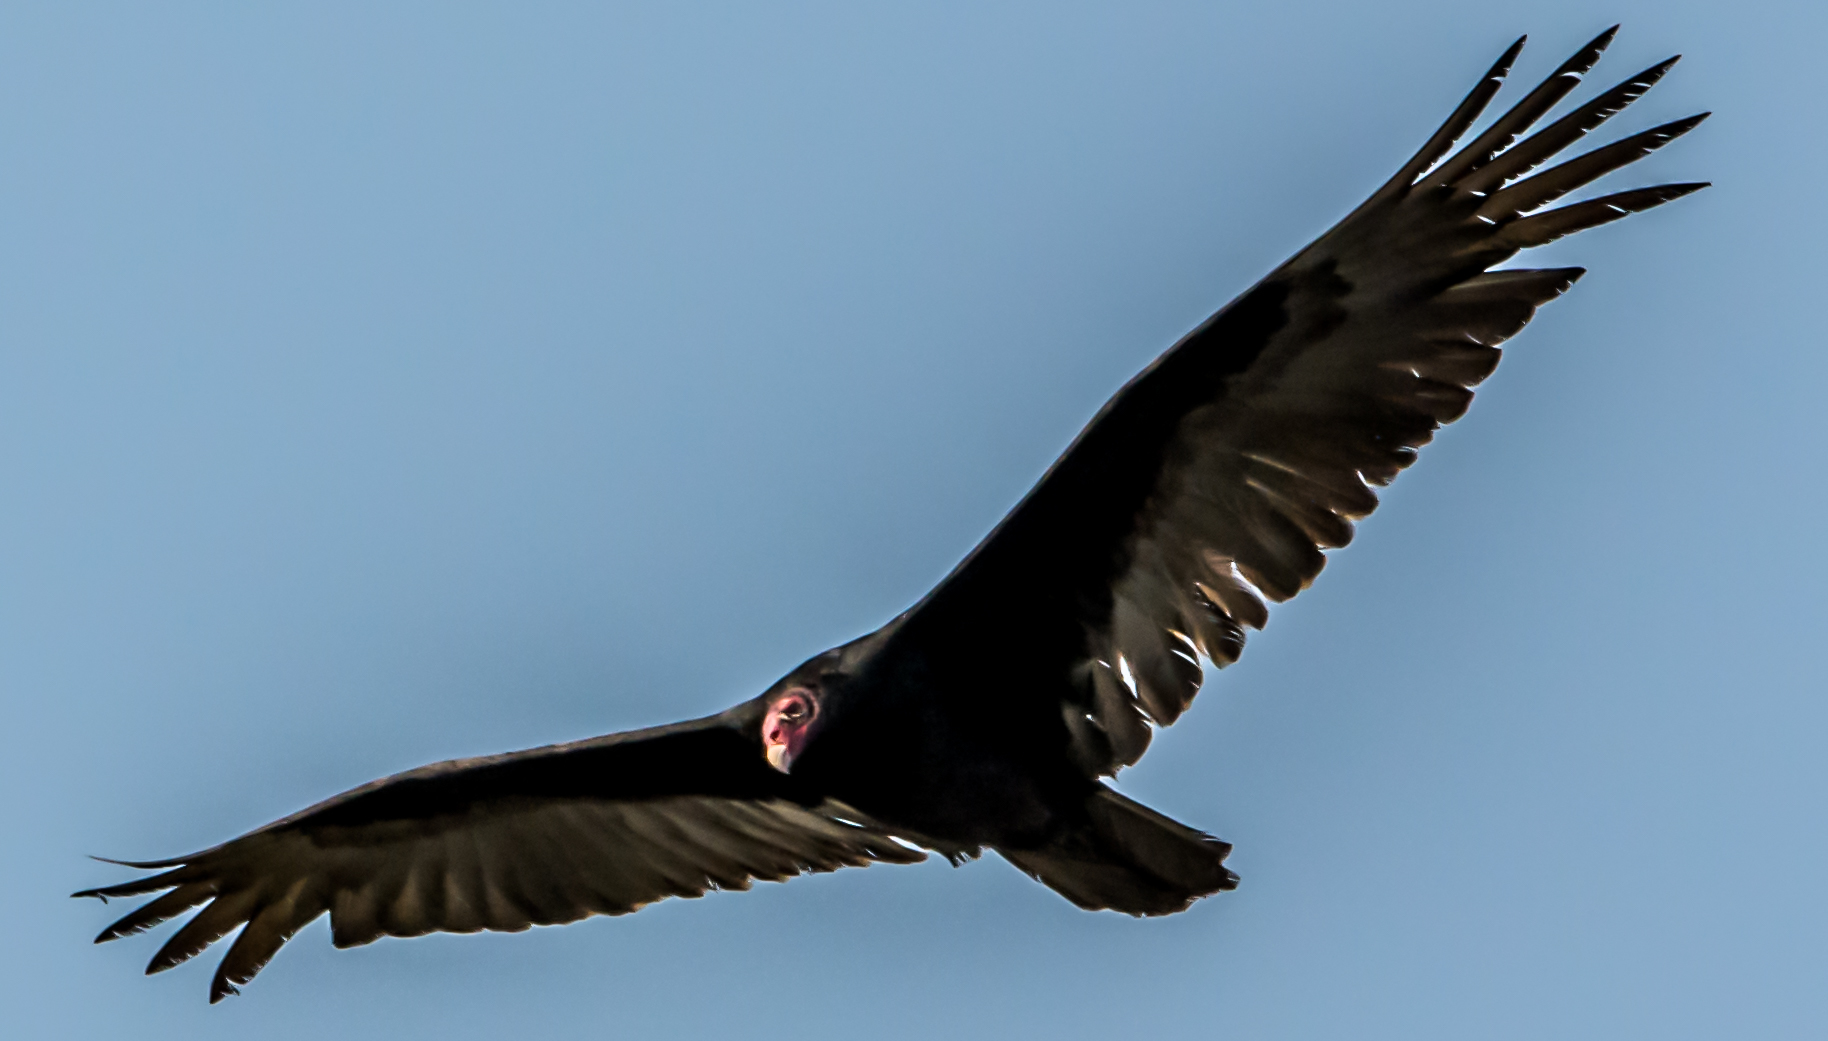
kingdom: Animalia
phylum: Chordata
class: Aves
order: Accipitriformes
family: Cathartidae
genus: Cathartes
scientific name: Cathartes aura
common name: Turkey vulture
